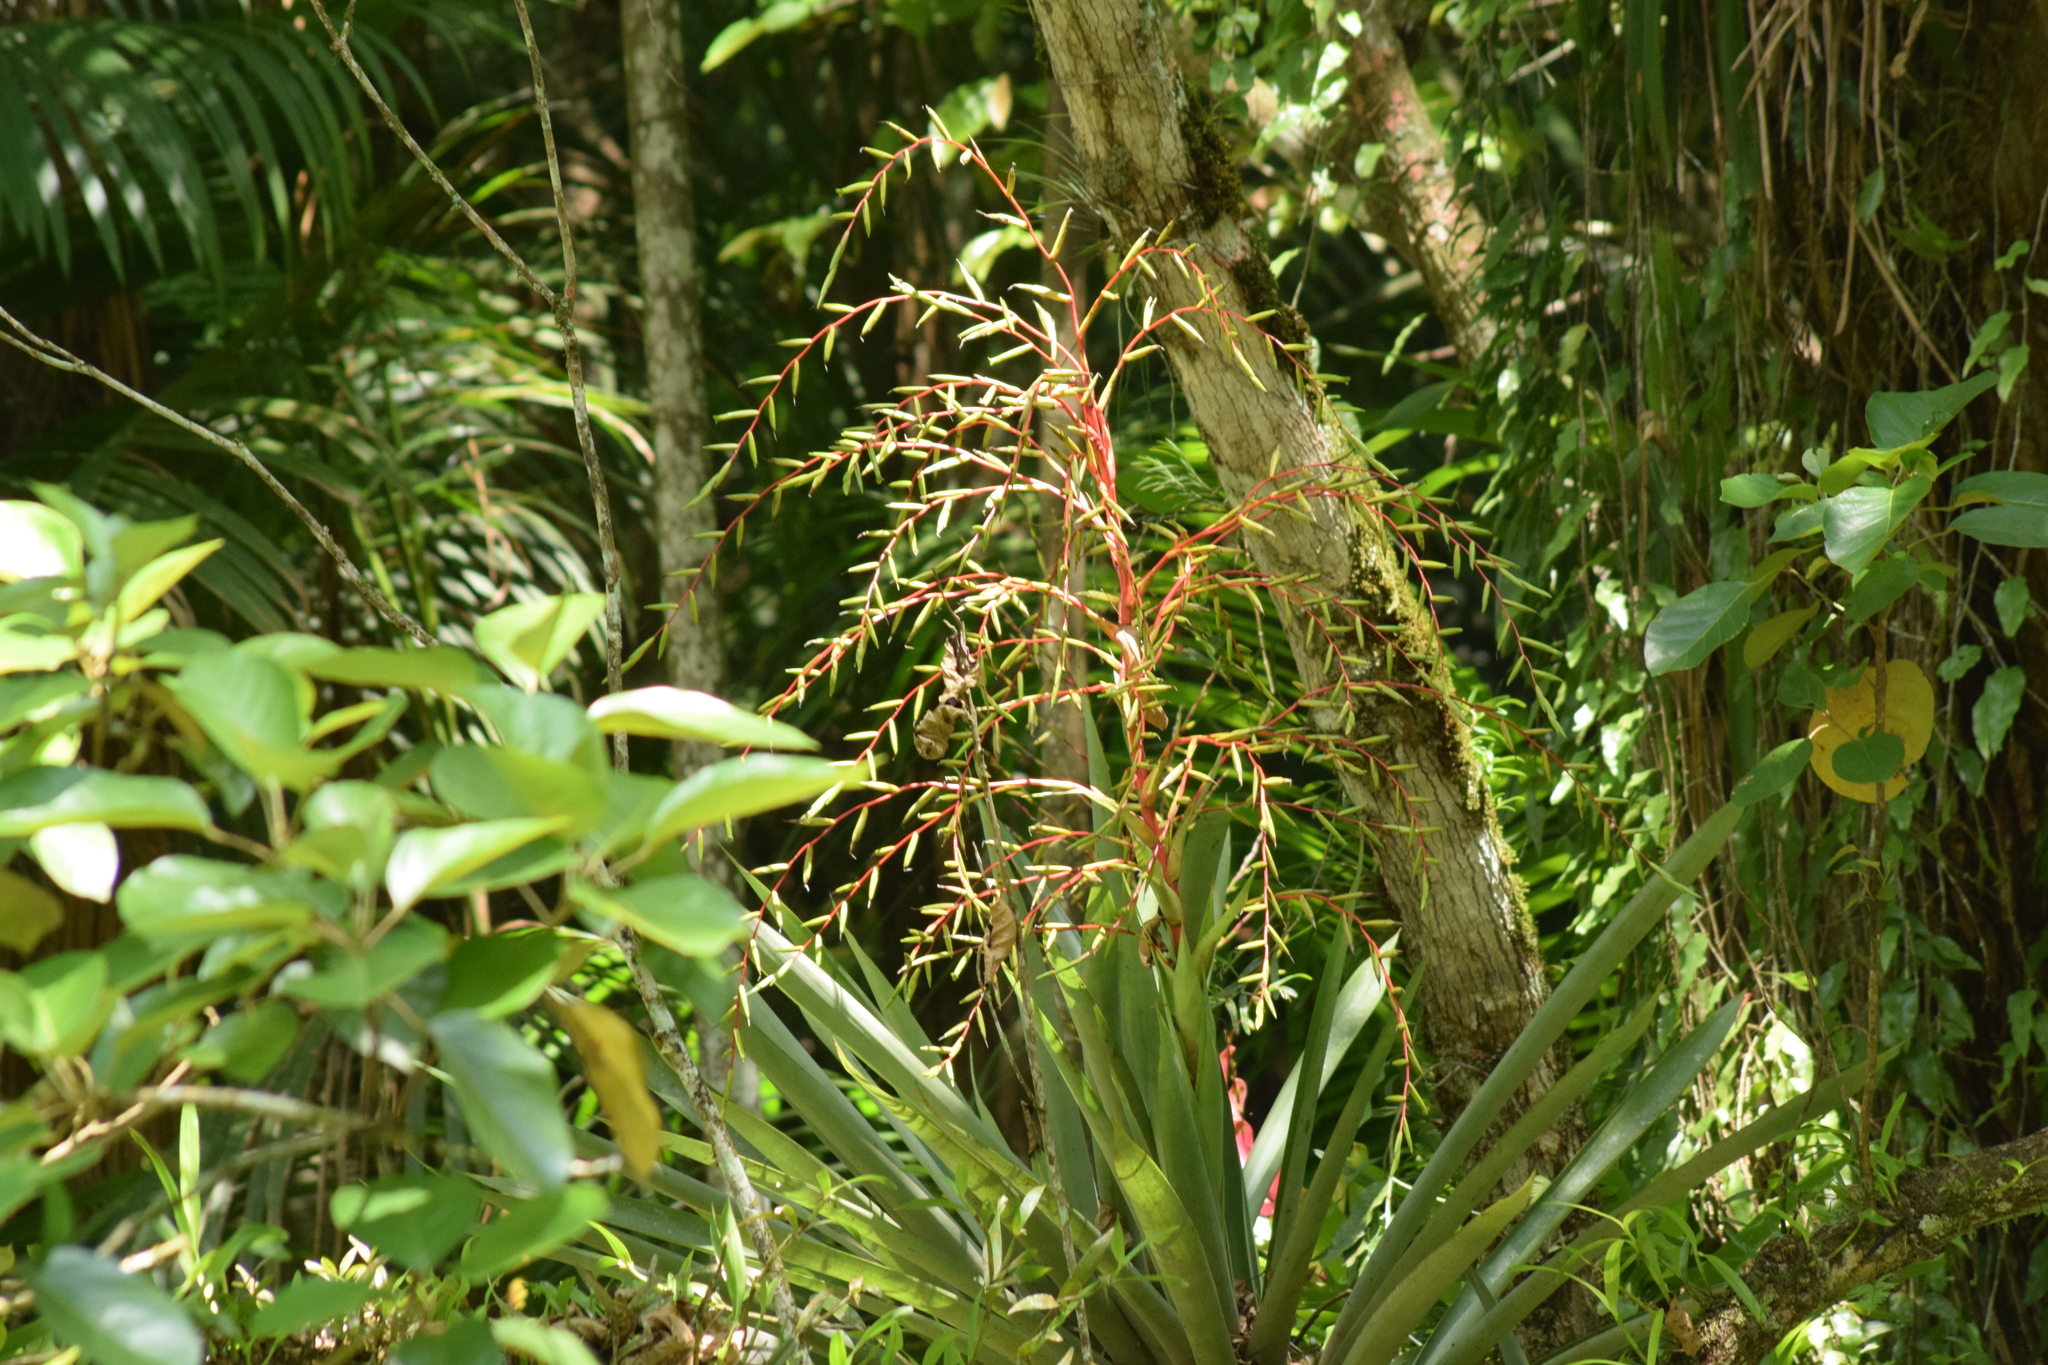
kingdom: Plantae
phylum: Tracheophyta
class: Liliopsida
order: Poales
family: Bromeliaceae
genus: Vriesea
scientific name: Vriesea paratiensis
